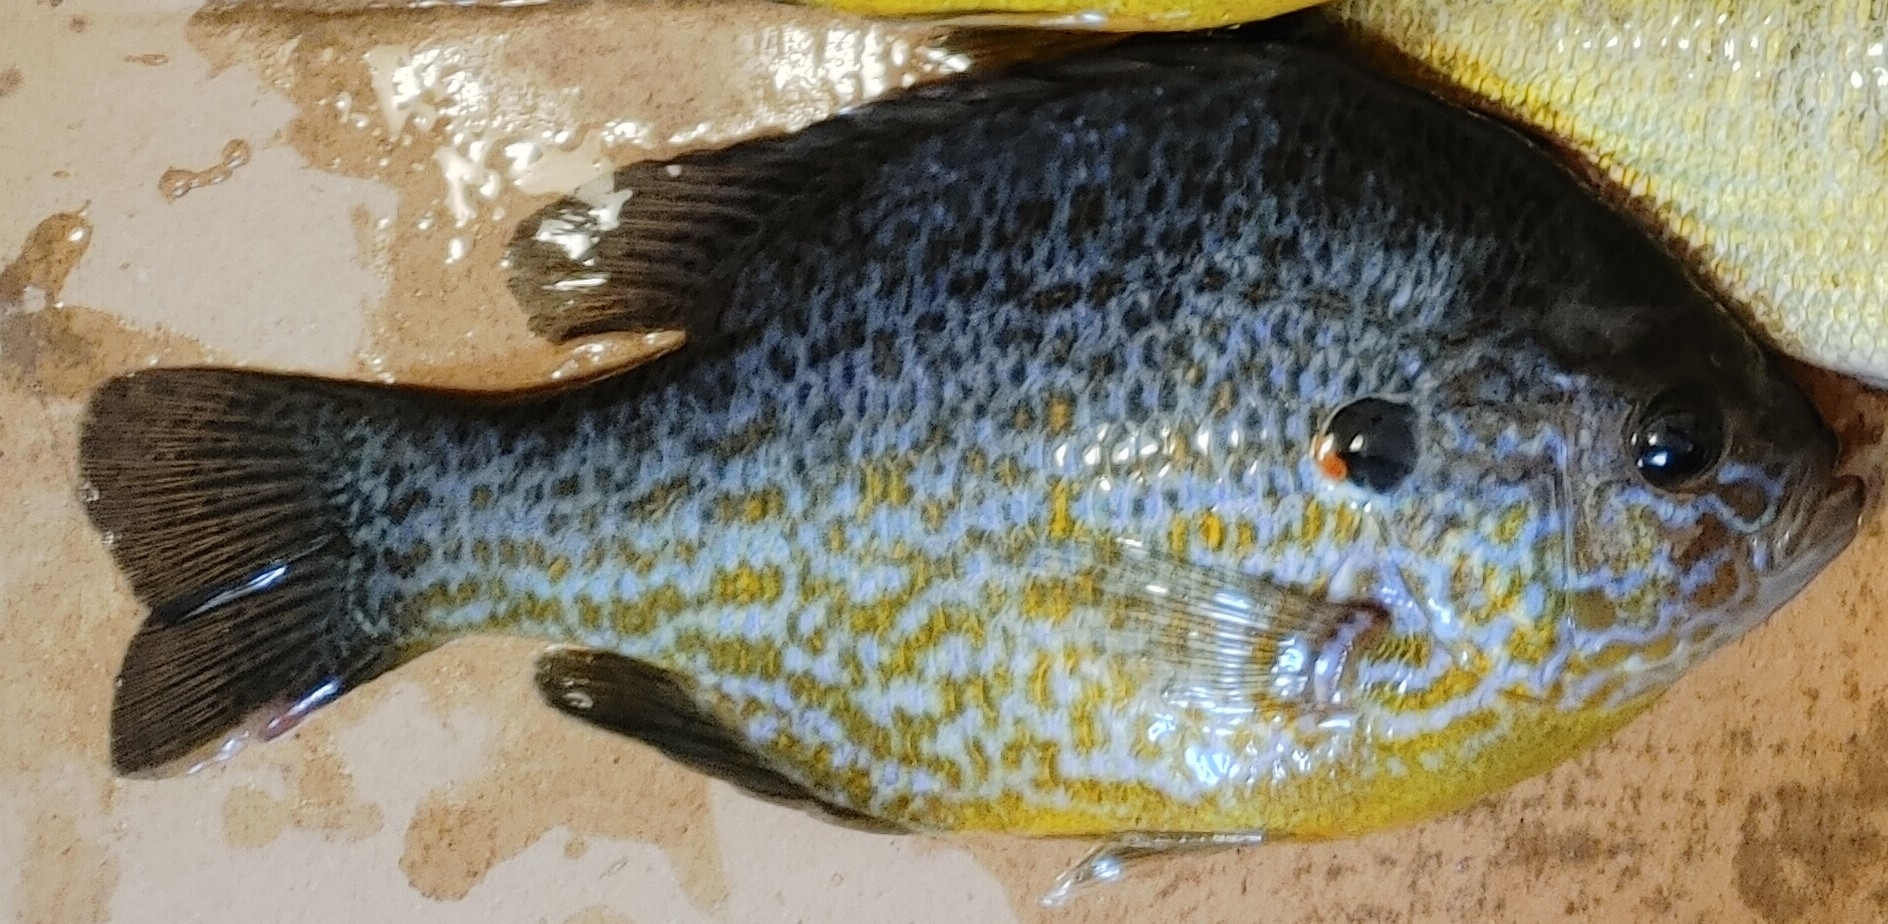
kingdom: Animalia
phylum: Chordata
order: Perciformes
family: Centrarchidae
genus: Lepomis
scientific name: Lepomis gibbosus
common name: Pumpkinseed
